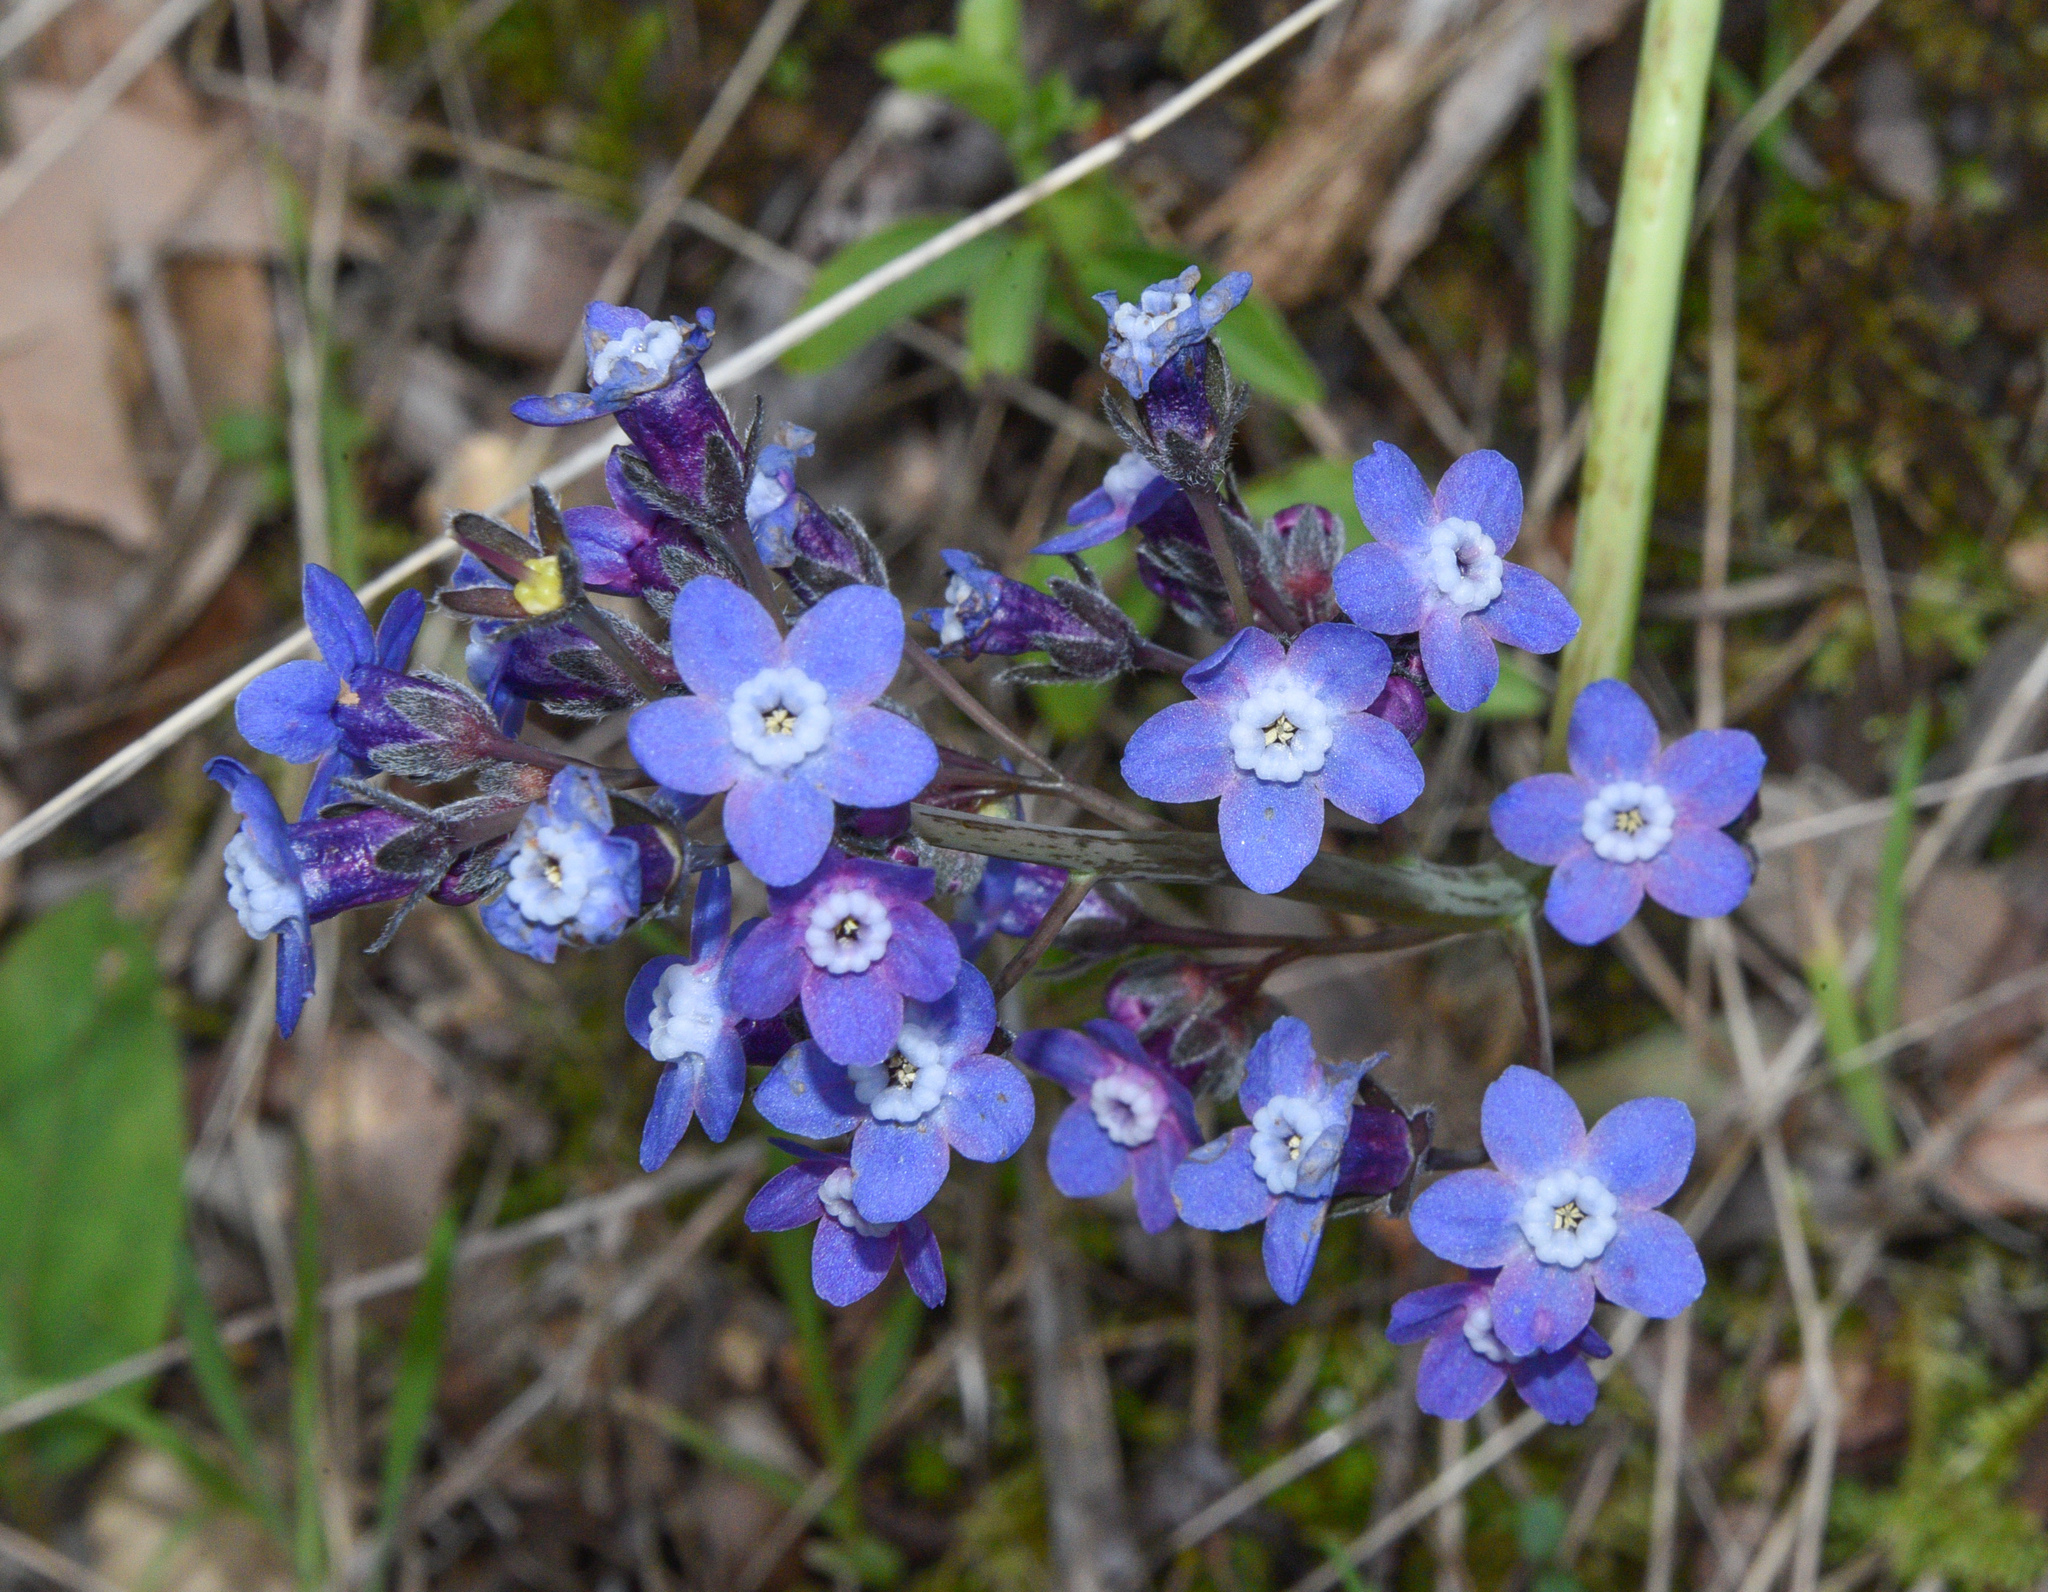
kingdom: Plantae
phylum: Tracheophyta
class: Magnoliopsida
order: Boraginales
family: Boraginaceae
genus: Adelinia
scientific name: Adelinia grande
